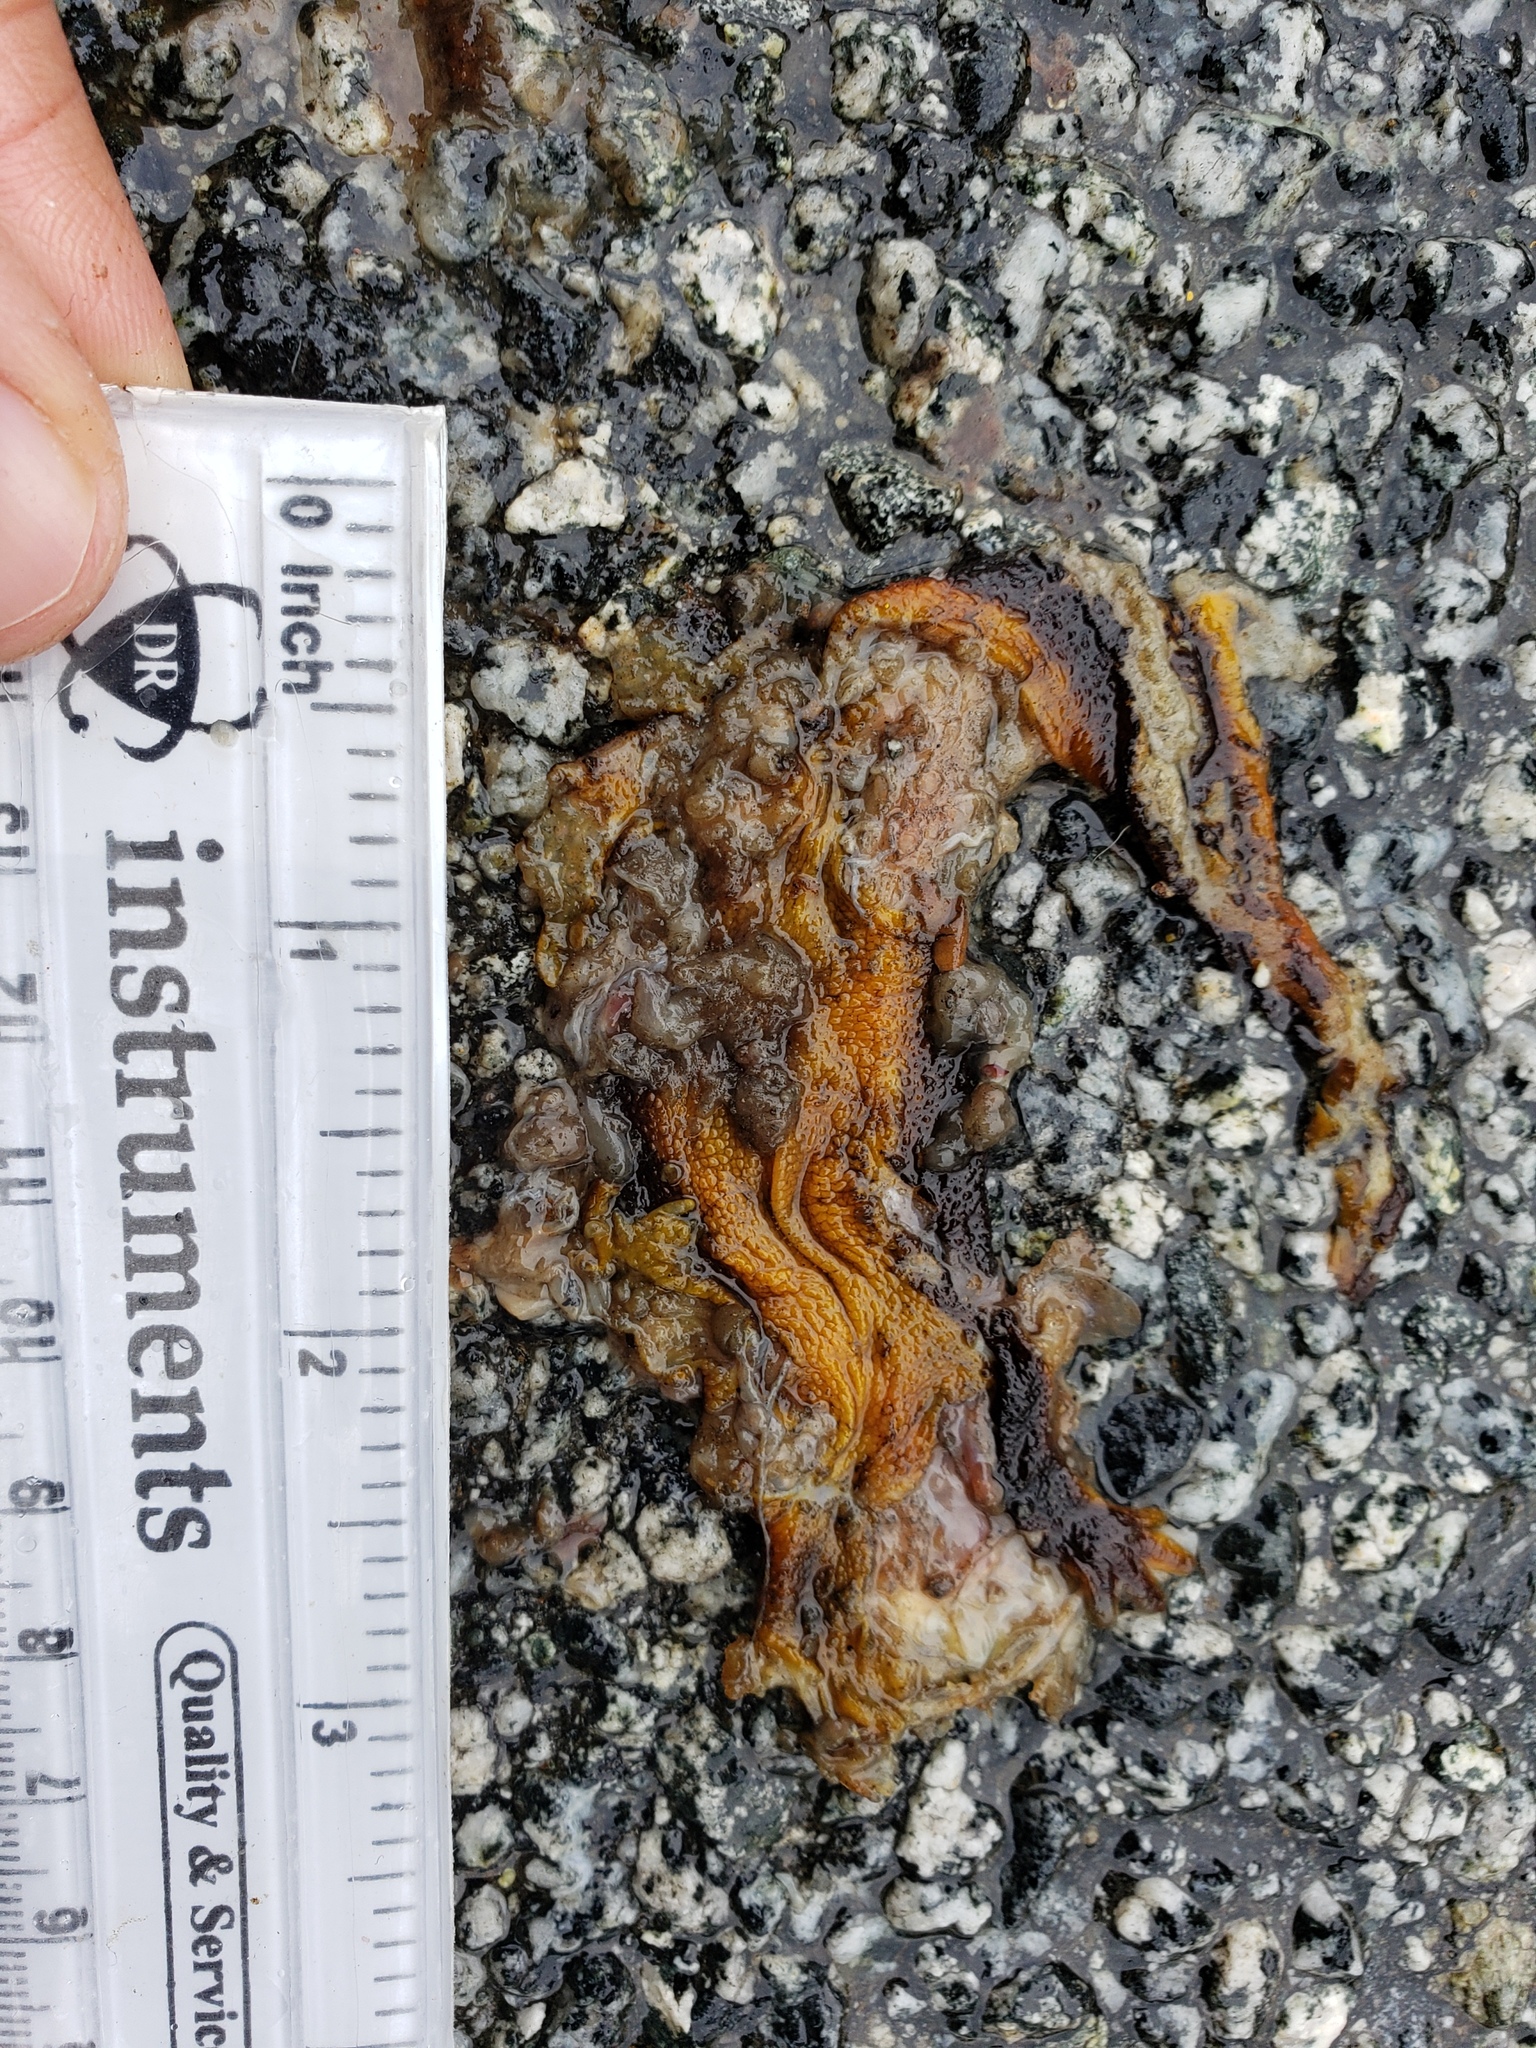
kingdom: Animalia
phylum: Chordata
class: Amphibia
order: Caudata
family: Salamandridae
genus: Taricha
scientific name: Taricha
